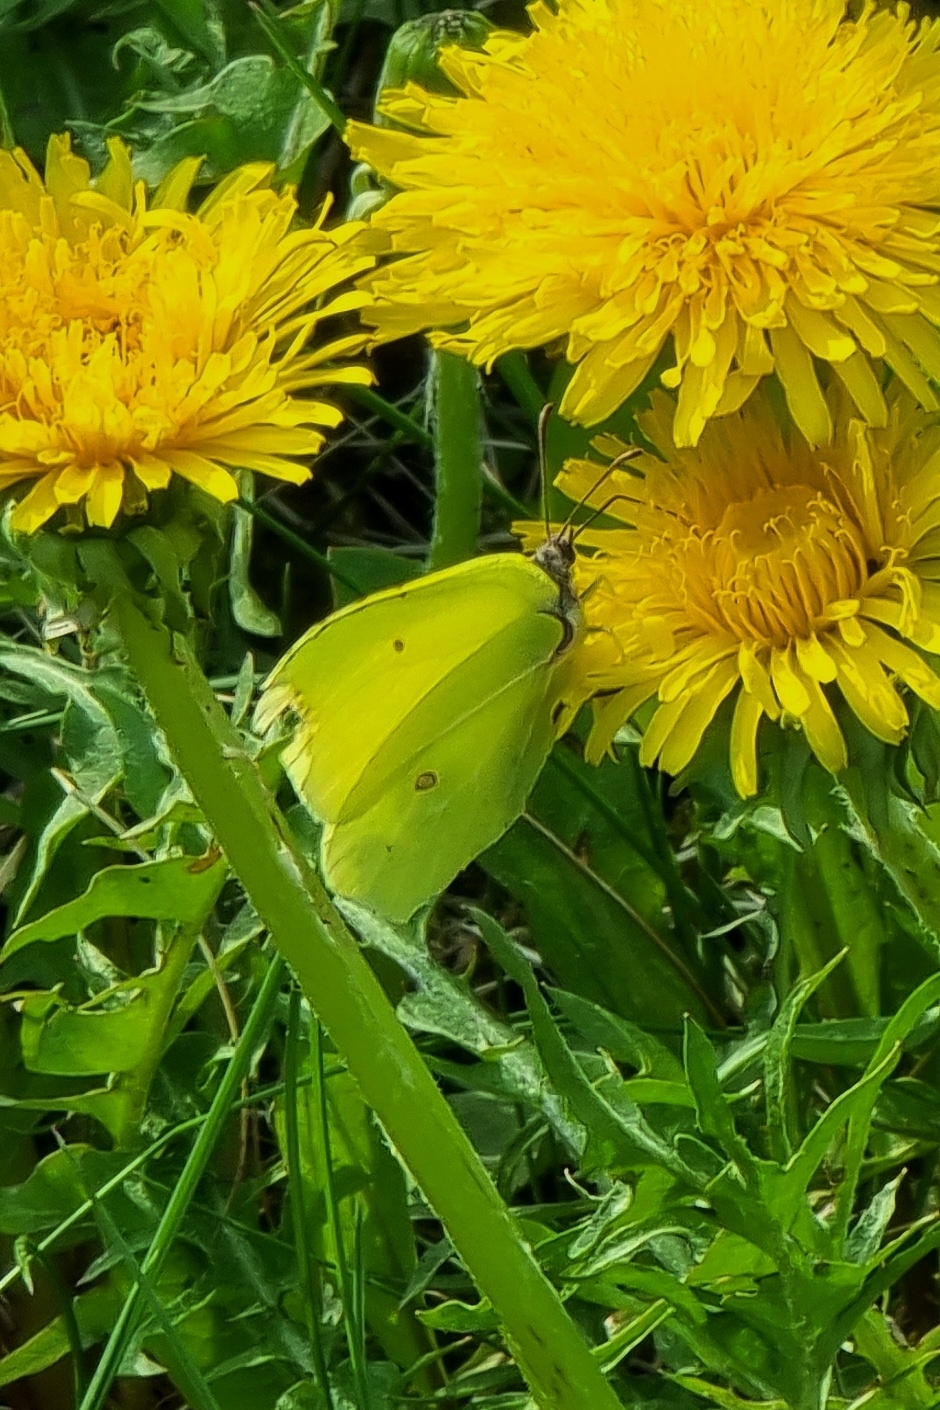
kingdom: Animalia
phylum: Arthropoda
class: Insecta
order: Lepidoptera
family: Pieridae
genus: Gonepteryx
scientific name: Gonepteryx rhamni
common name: Brimstone
